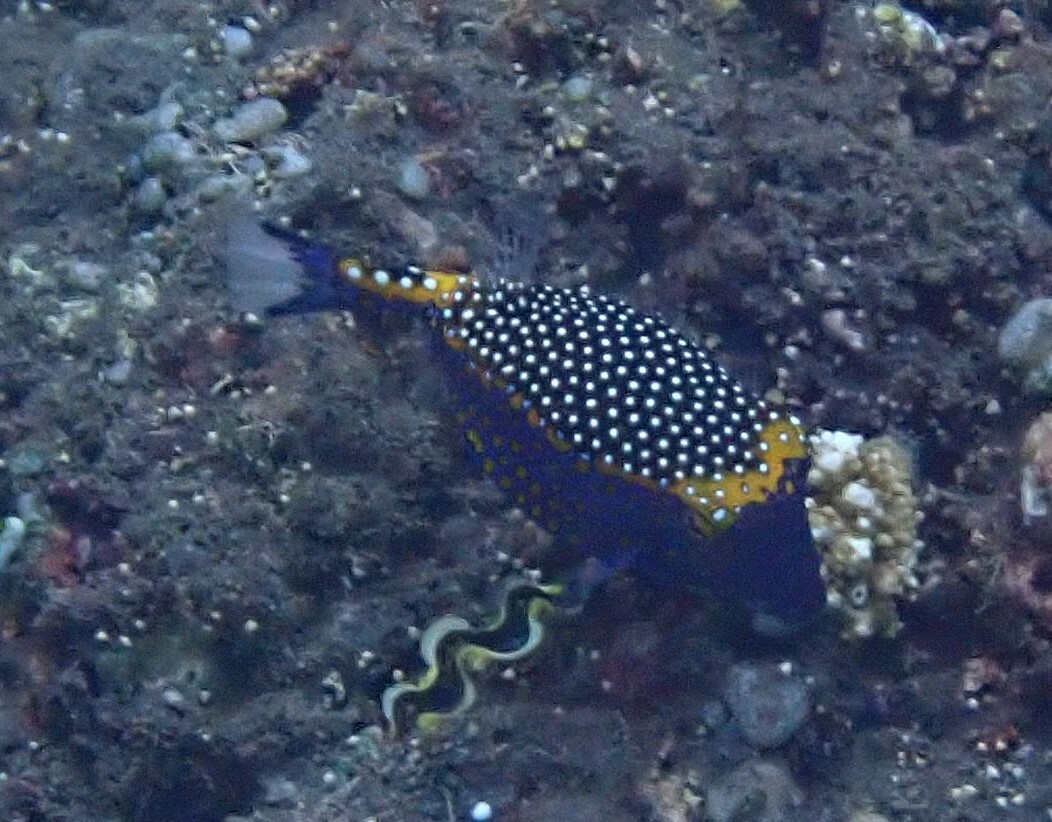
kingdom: Animalia
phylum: Chordata
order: Tetraodontiformes
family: Ostraciidae
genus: Ostracion
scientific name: Ostracion meleagris
